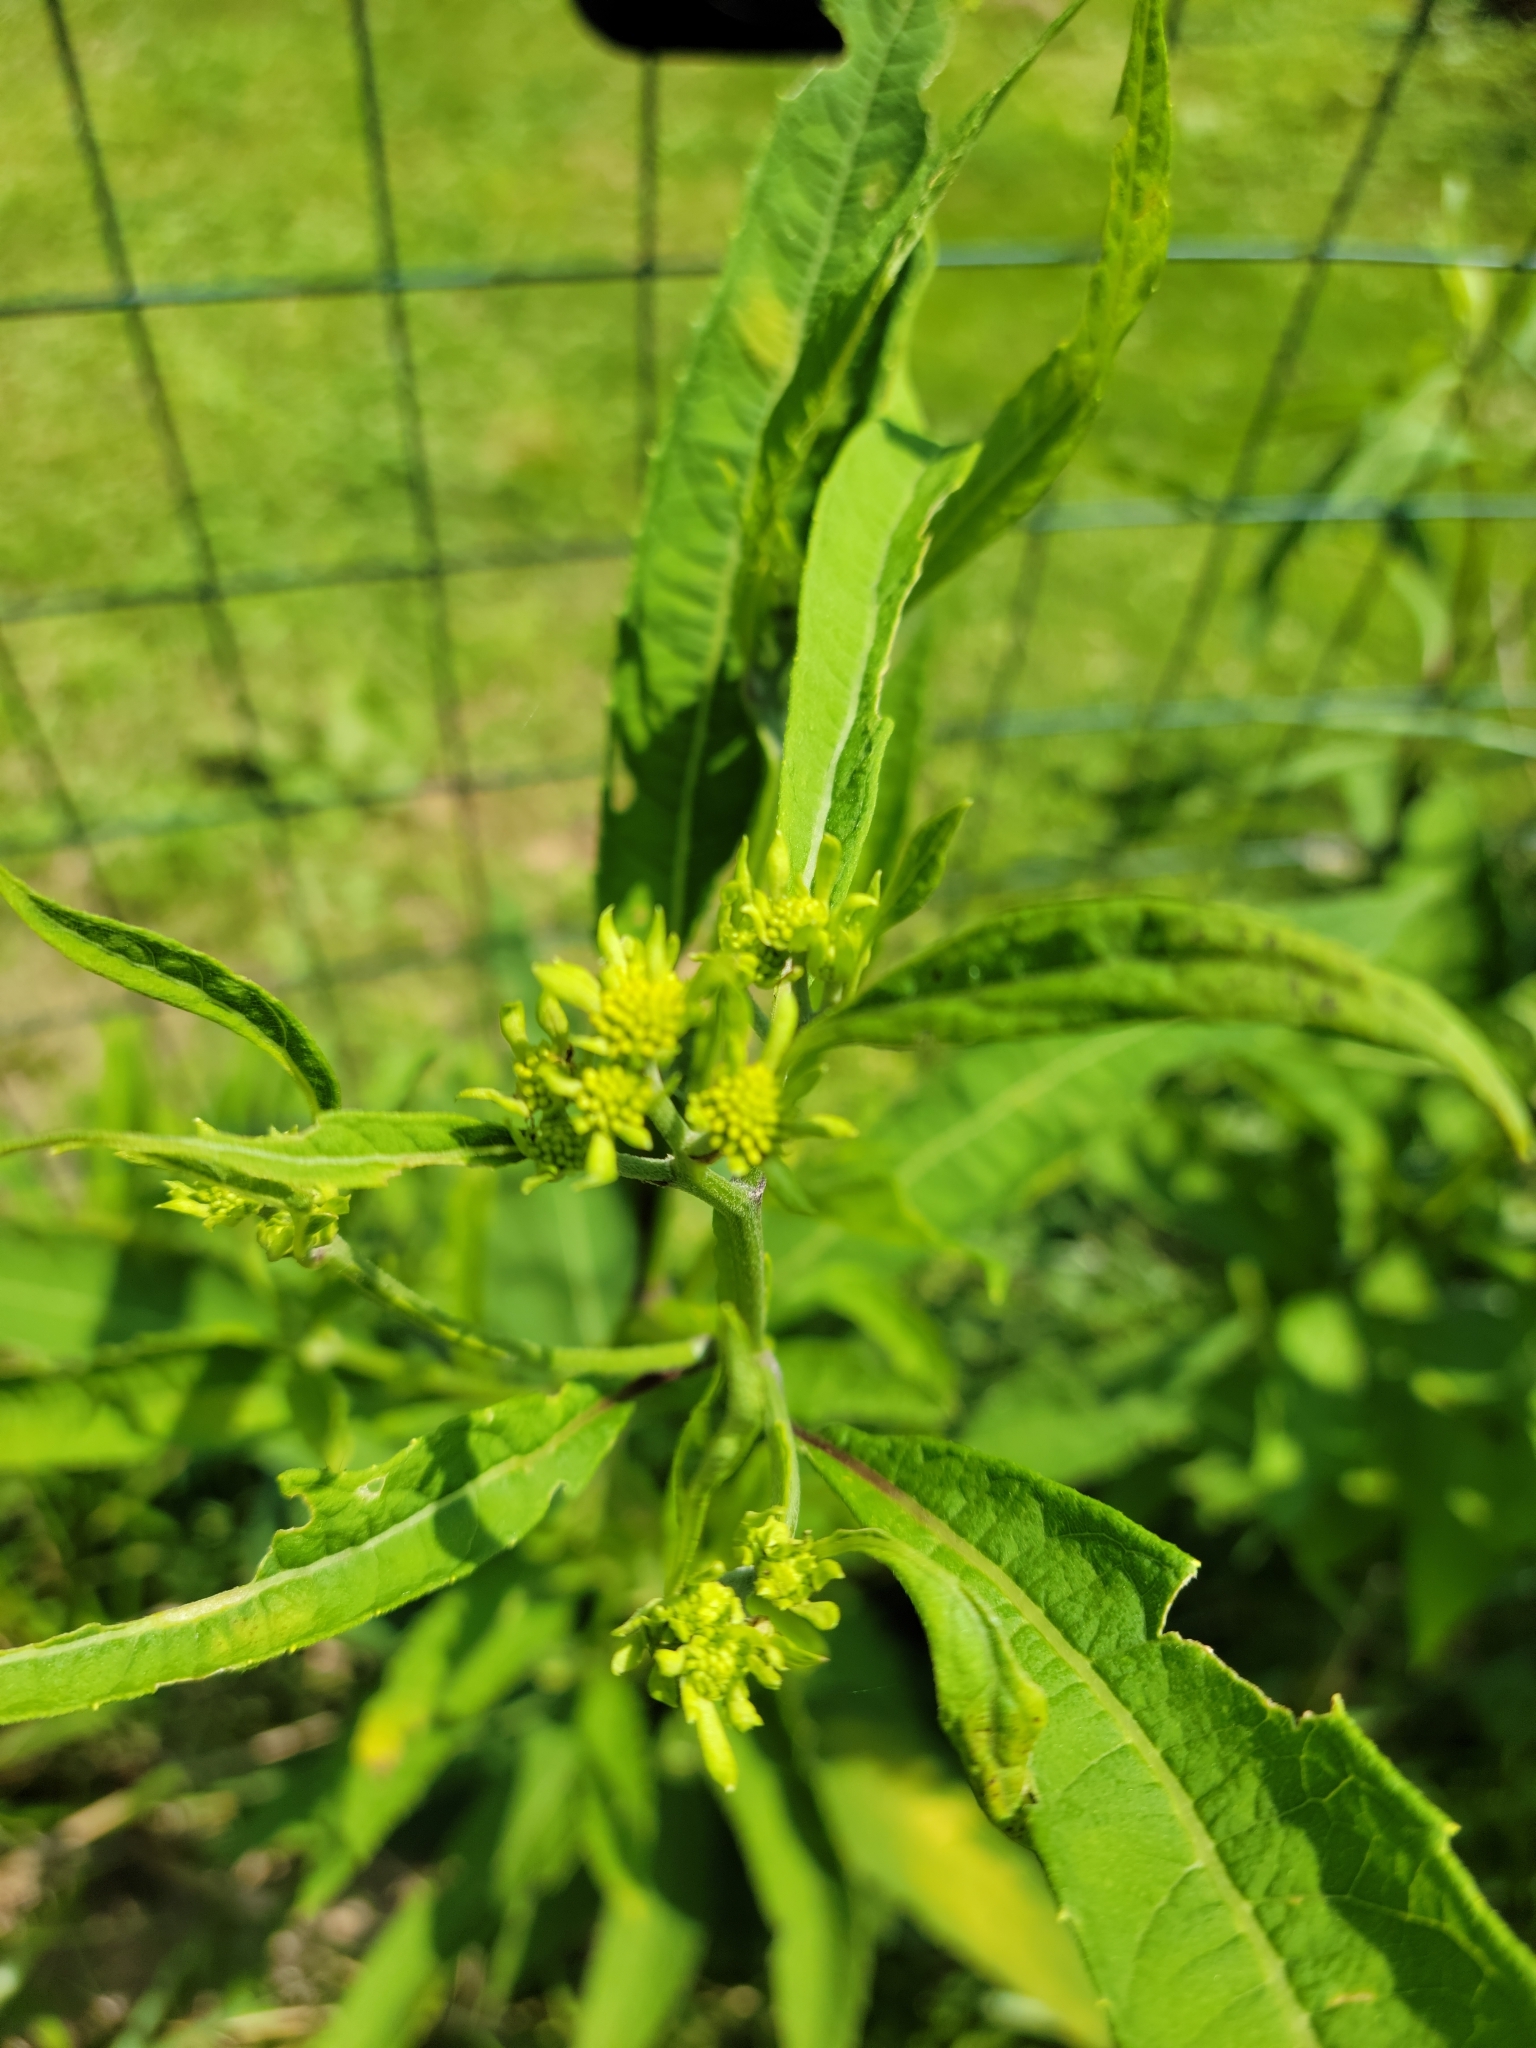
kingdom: Plantae
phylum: Tracheophyta
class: Magnoliopsida
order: Asterales
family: Asteraceae
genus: Verbesina
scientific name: Verbesina alternifolia
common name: Wingstem
